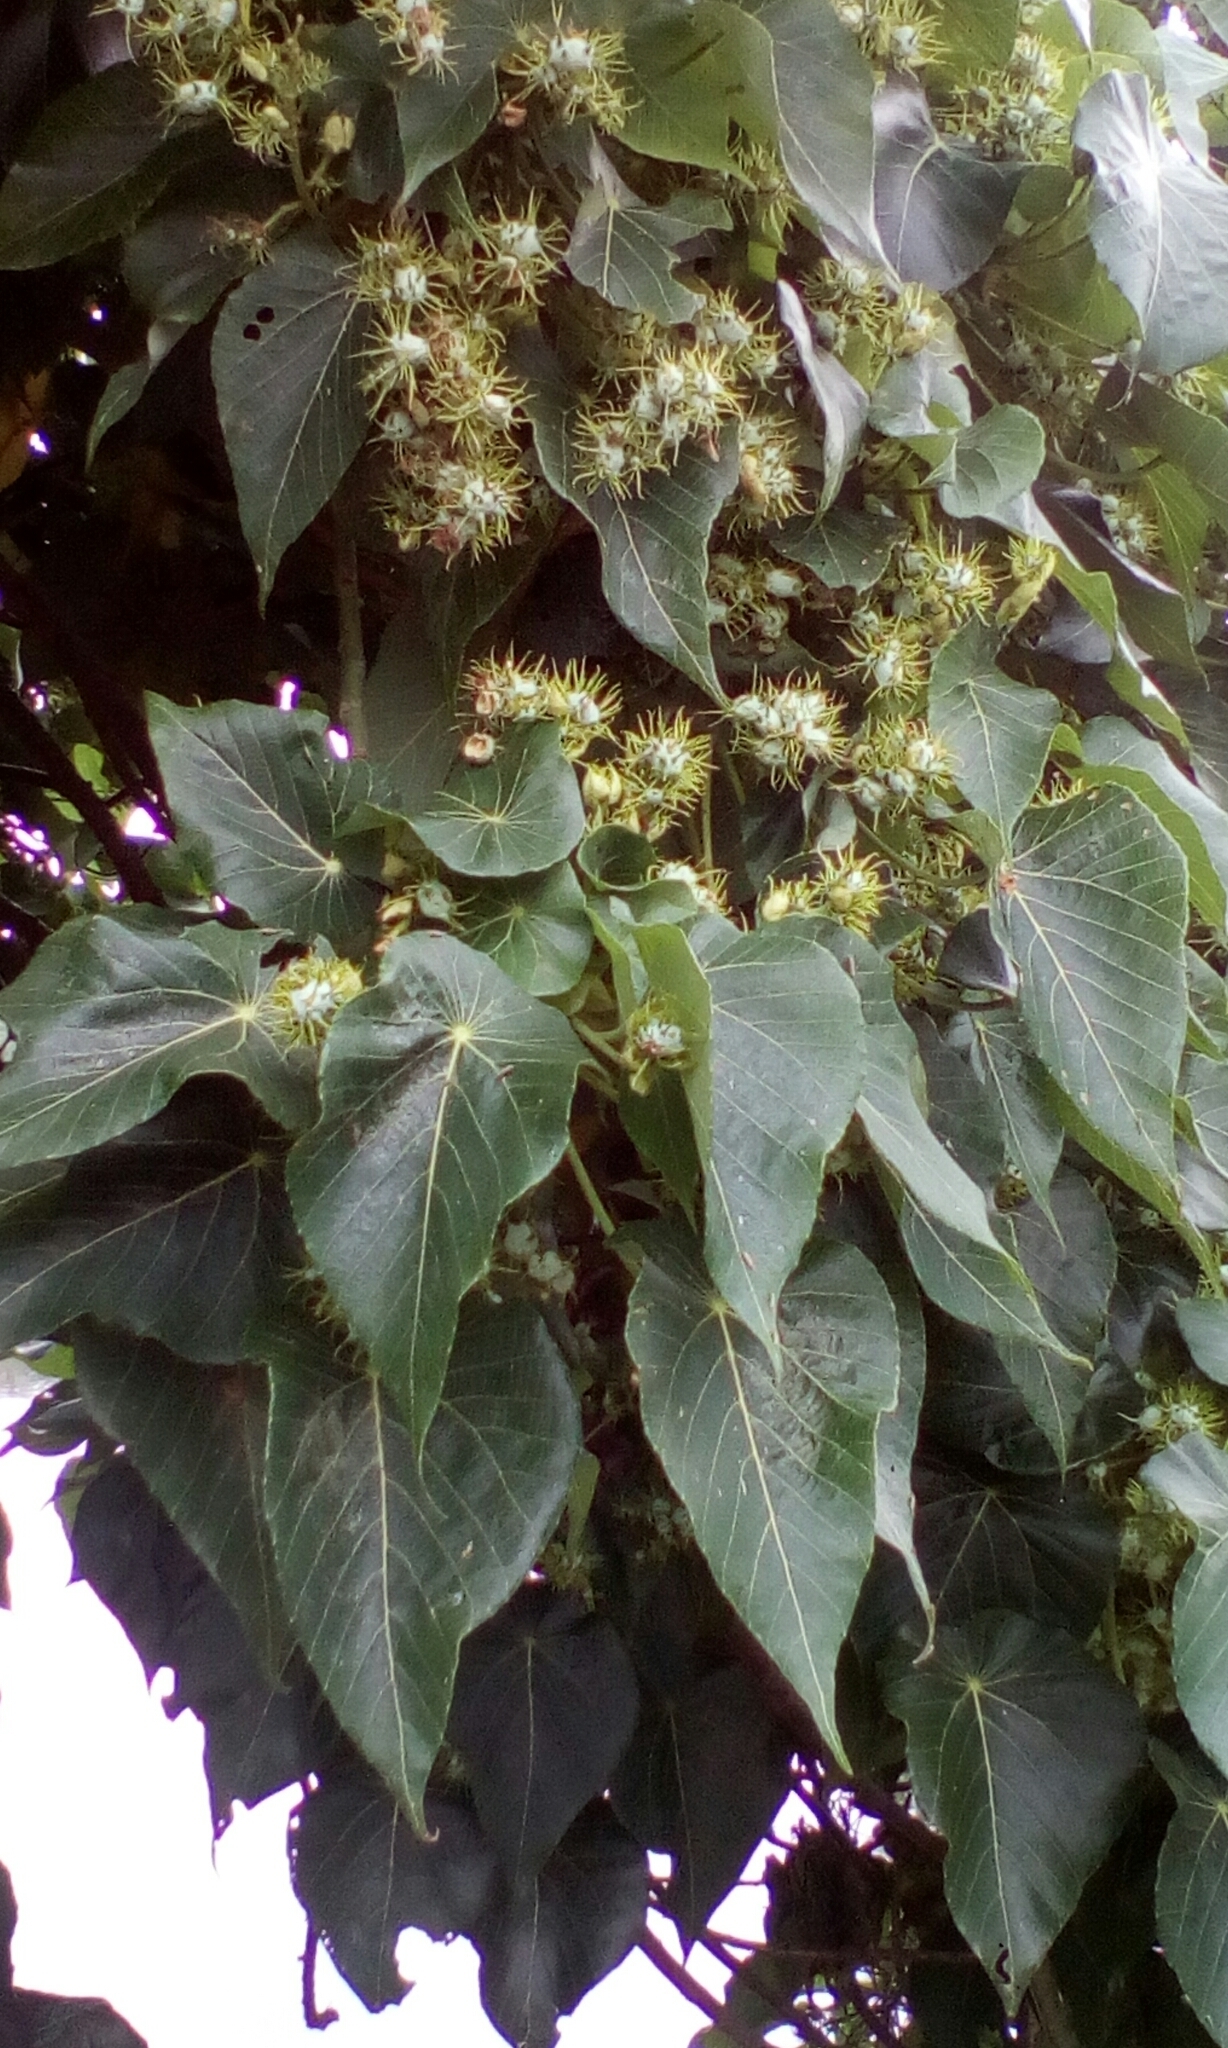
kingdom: Plantae
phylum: Tracheophyta
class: Magnoliopsida
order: Malpighiales
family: Euphorbiaceae
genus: Macaranga
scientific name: Macaranga tanarius
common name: Parasol leaf tree
